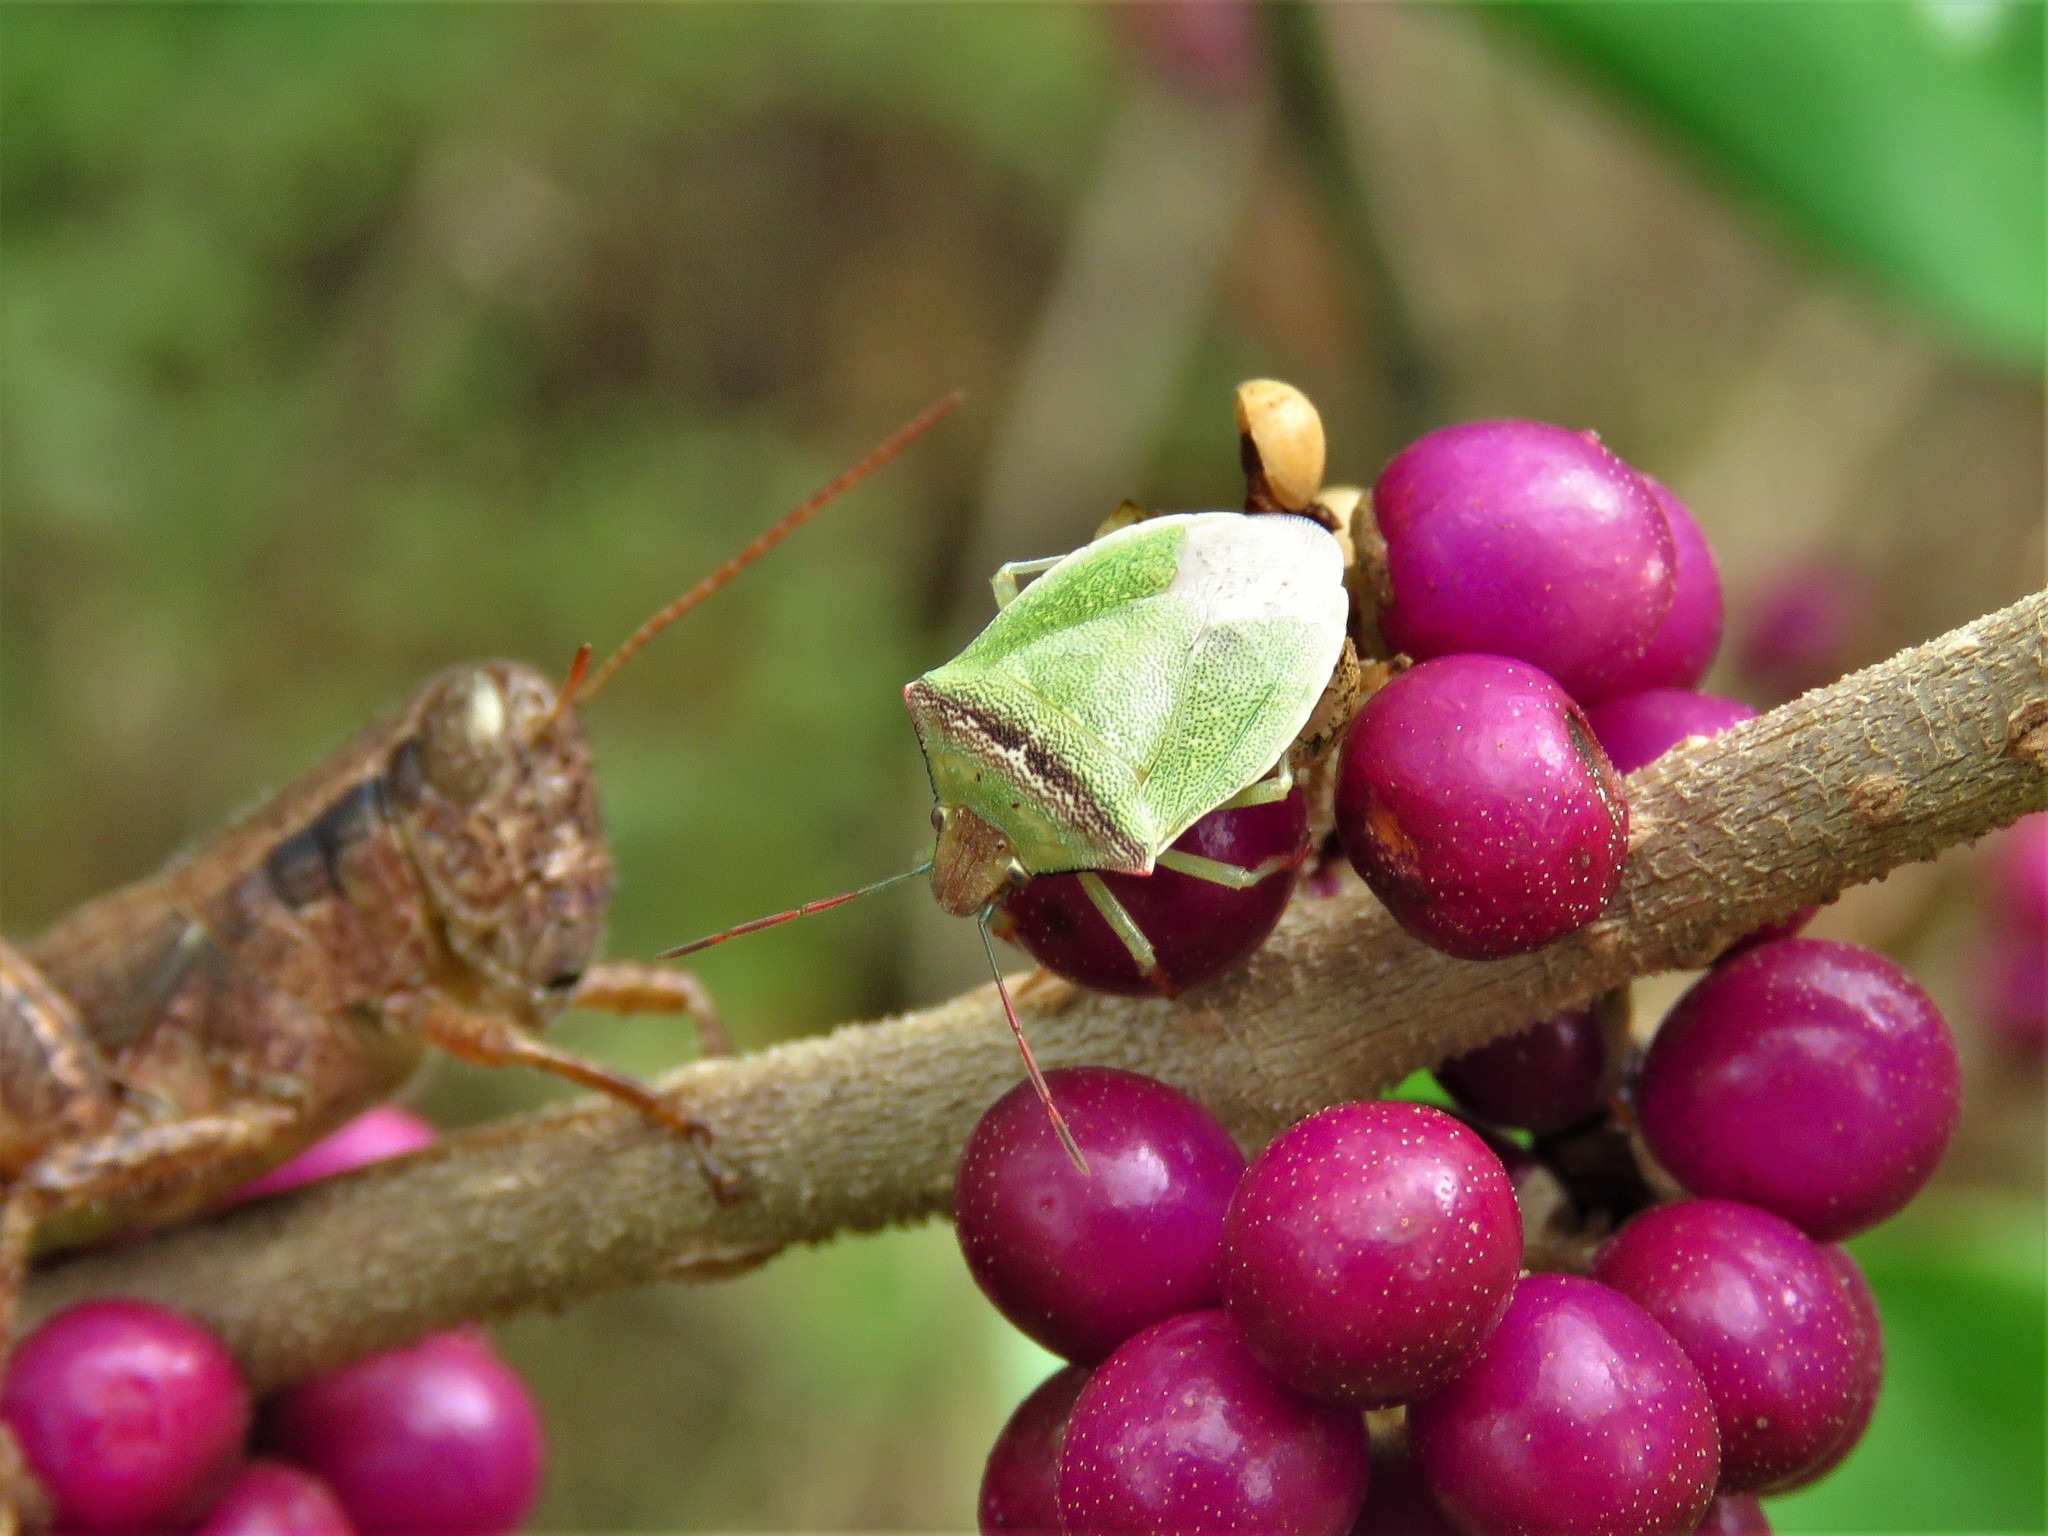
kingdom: Animalia
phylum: Arthropoda
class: Insecta
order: Hemiptera
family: Pentatomidae
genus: Thyanta
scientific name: Thyanta calceata
